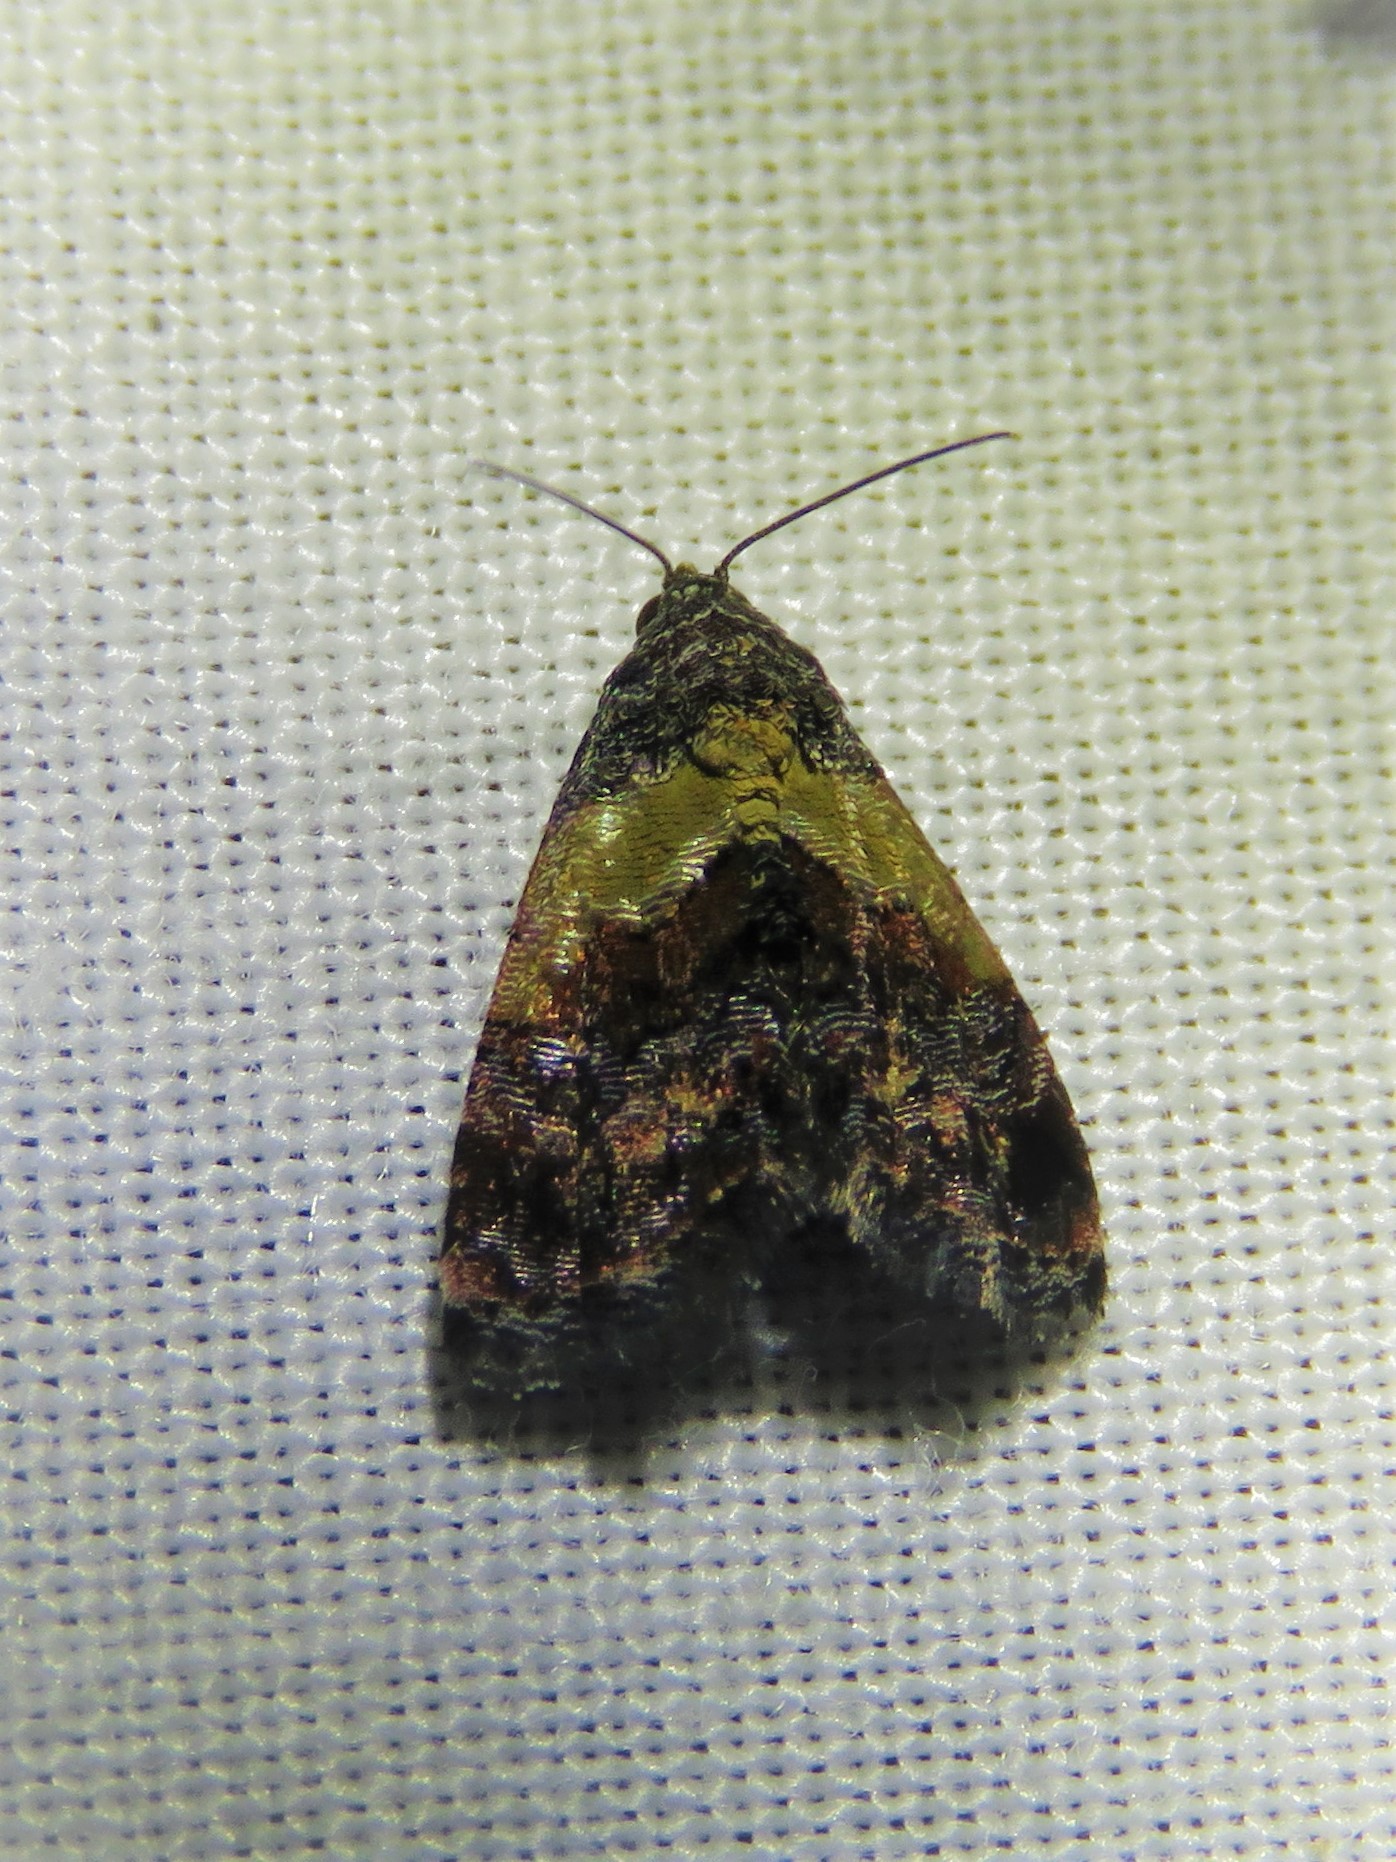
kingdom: Animalia
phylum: Arthropoda
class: Insecta
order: Lepidoptera
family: Noctuidae
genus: Tripudia
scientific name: Tripudia flavofasciata
